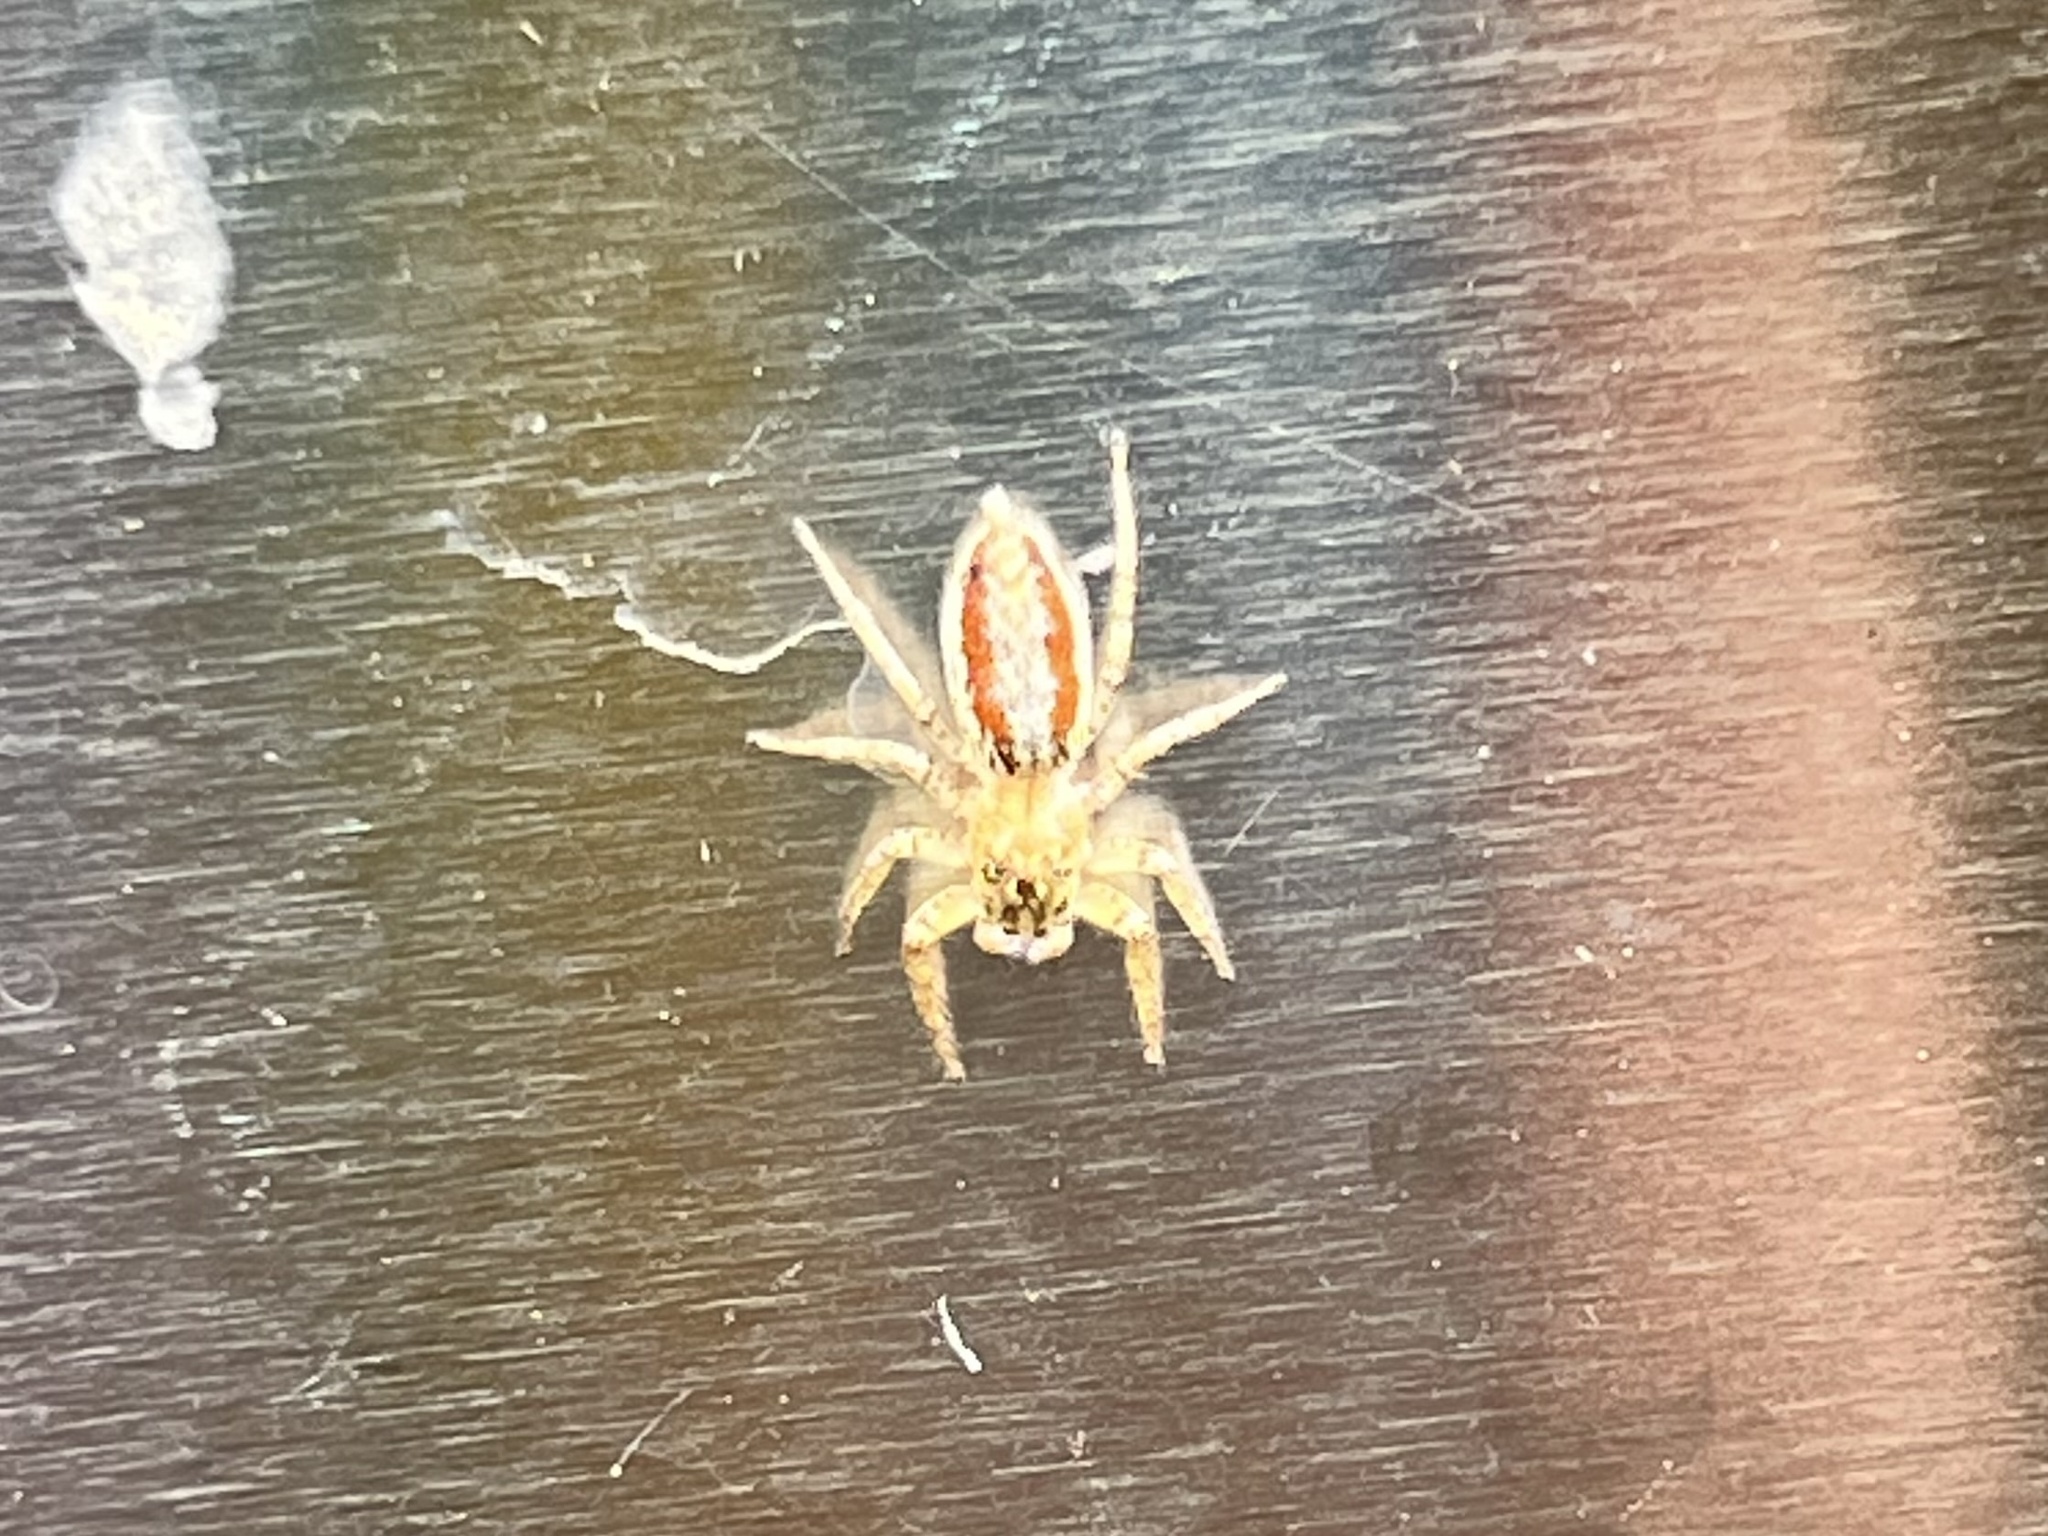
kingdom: Animalia
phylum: Arthropoda
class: Arachnida
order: Araneae
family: Salticidae
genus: Maevia
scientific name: Maevia inclemens
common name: Dimorphic jumper
